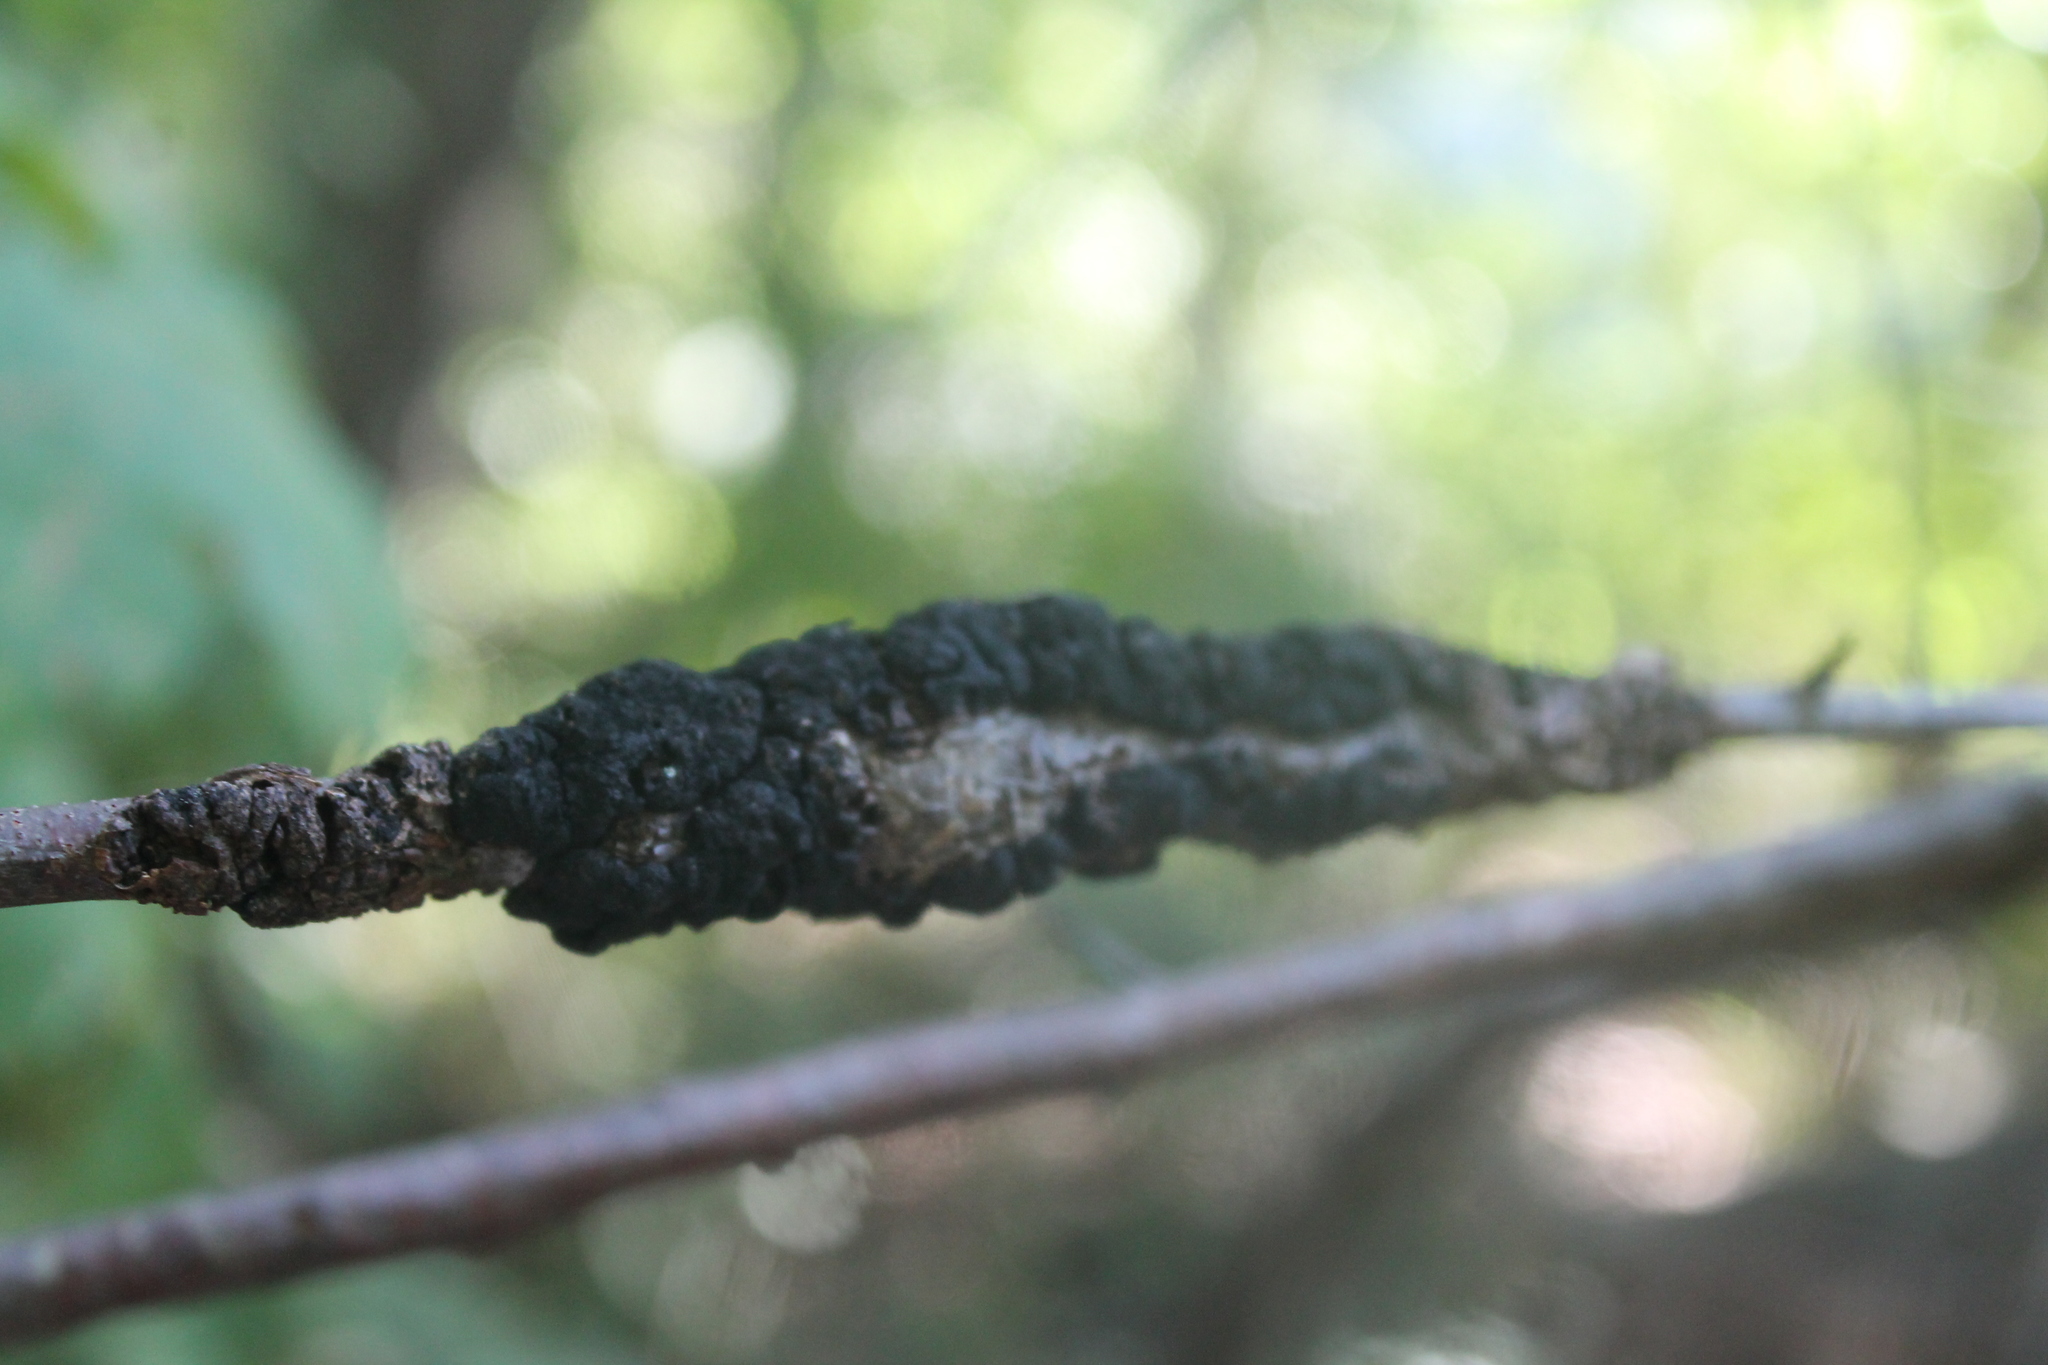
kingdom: Fungi
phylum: Ascomycota
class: Dothideomycetes
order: Venturiales
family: Venturiaceae
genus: Apiosporina
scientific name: Apiosporina morbosa
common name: Black knot
